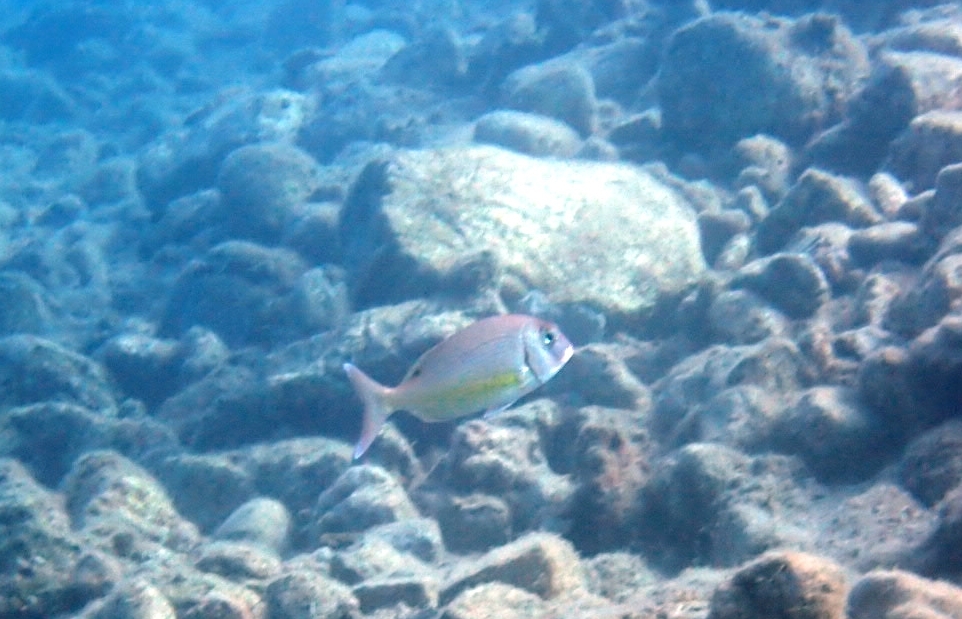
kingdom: Animalia
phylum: Chordata
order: Perciformes
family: Sparidae
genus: Pagrus
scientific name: Pagrus pagrus
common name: Red porgy
